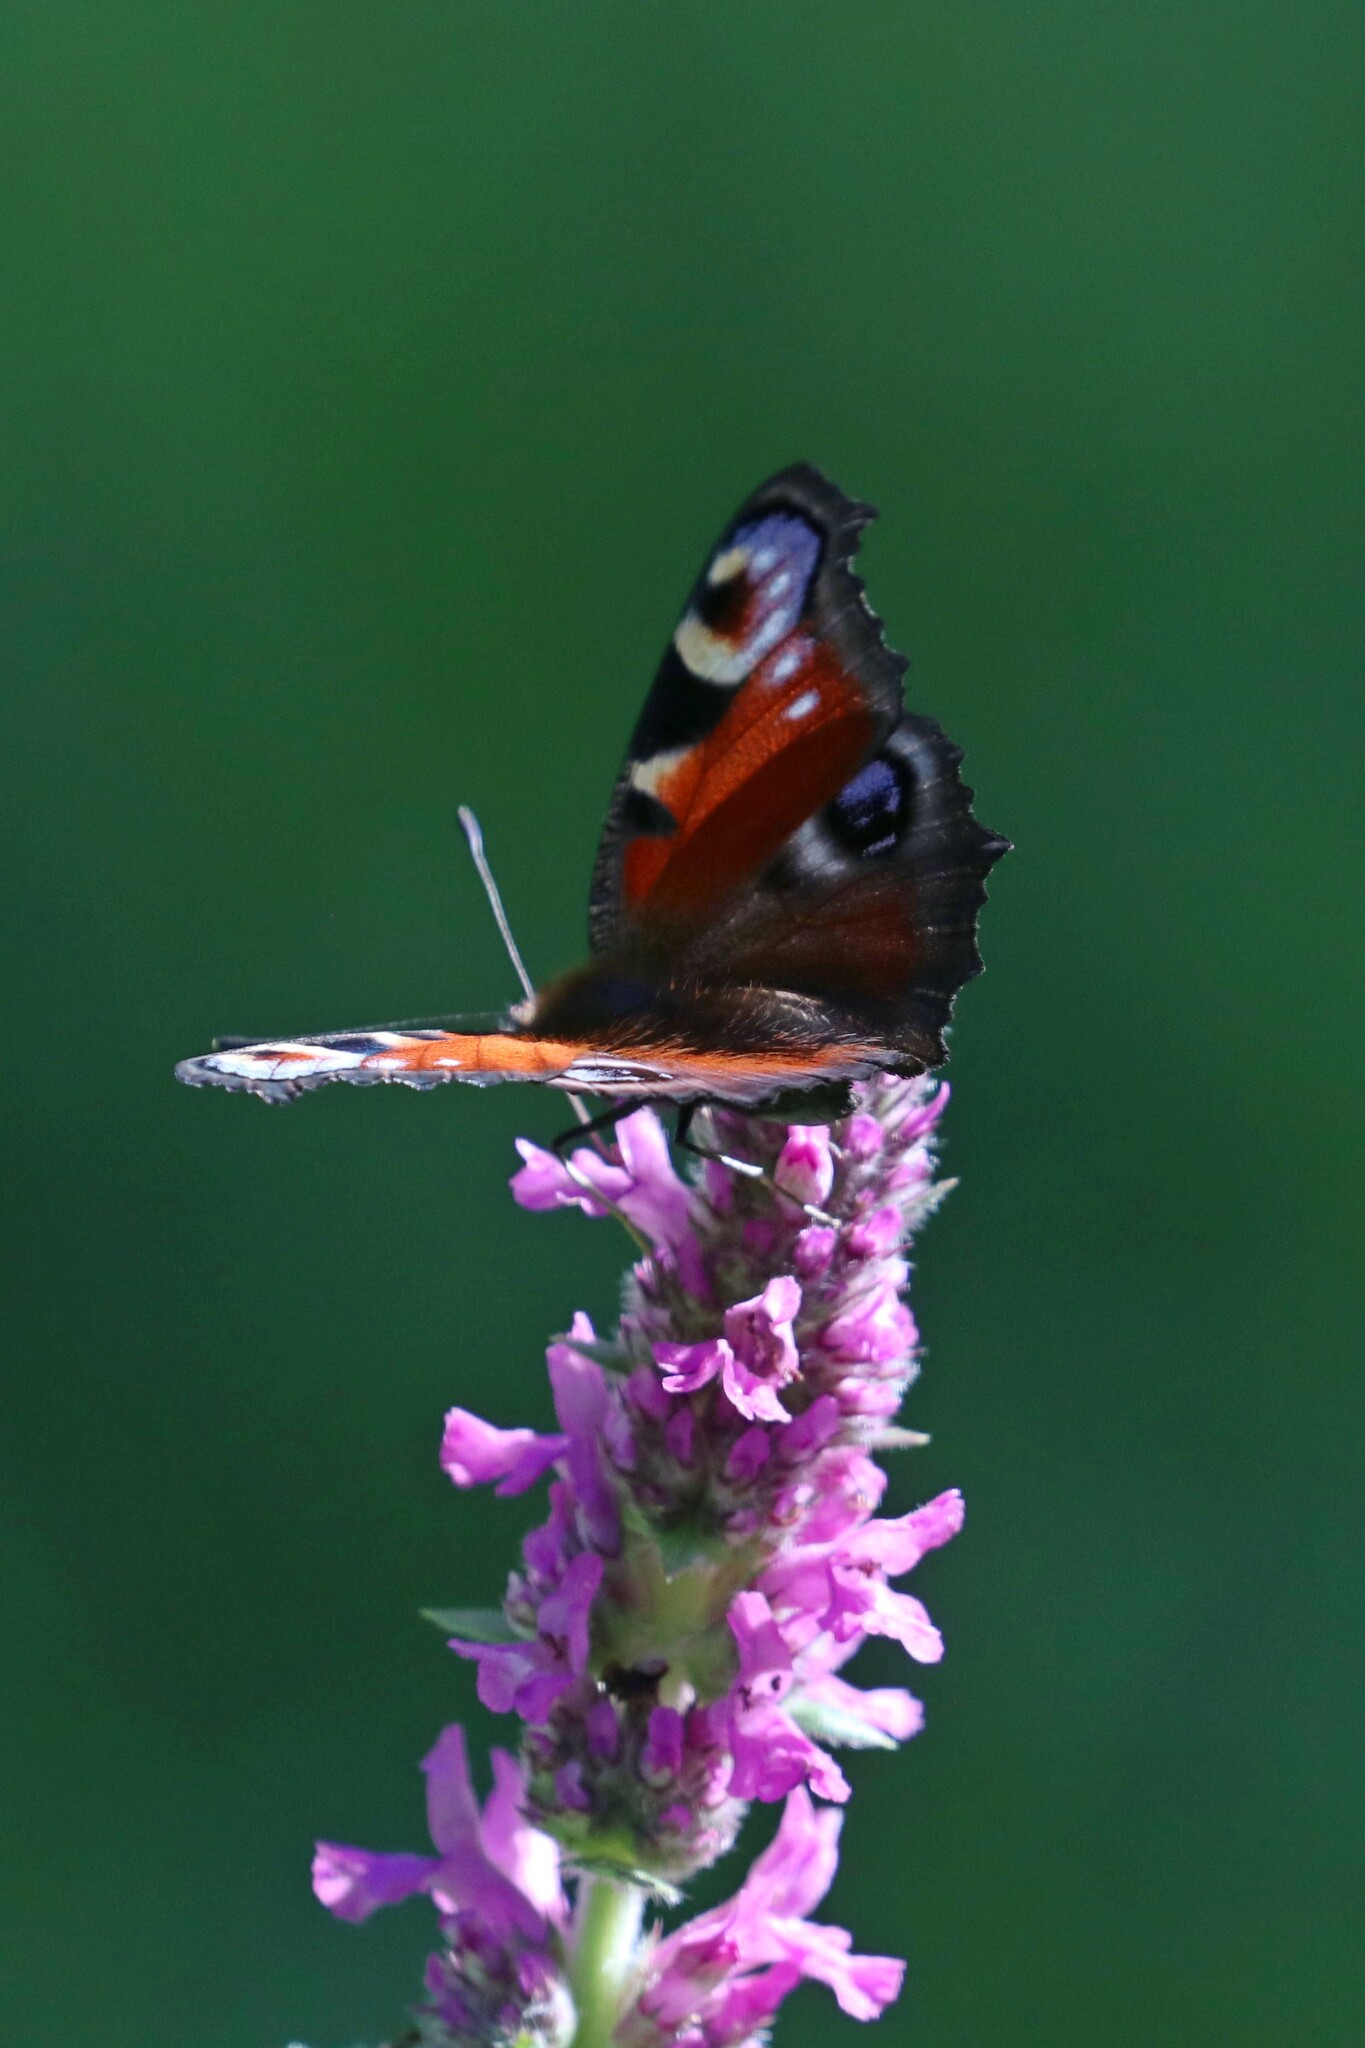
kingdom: Animalia
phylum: Arthropoda
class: Insecta
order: Lepidoptera
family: Nymphalidae
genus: Aglais
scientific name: Aglais io
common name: Peacock
